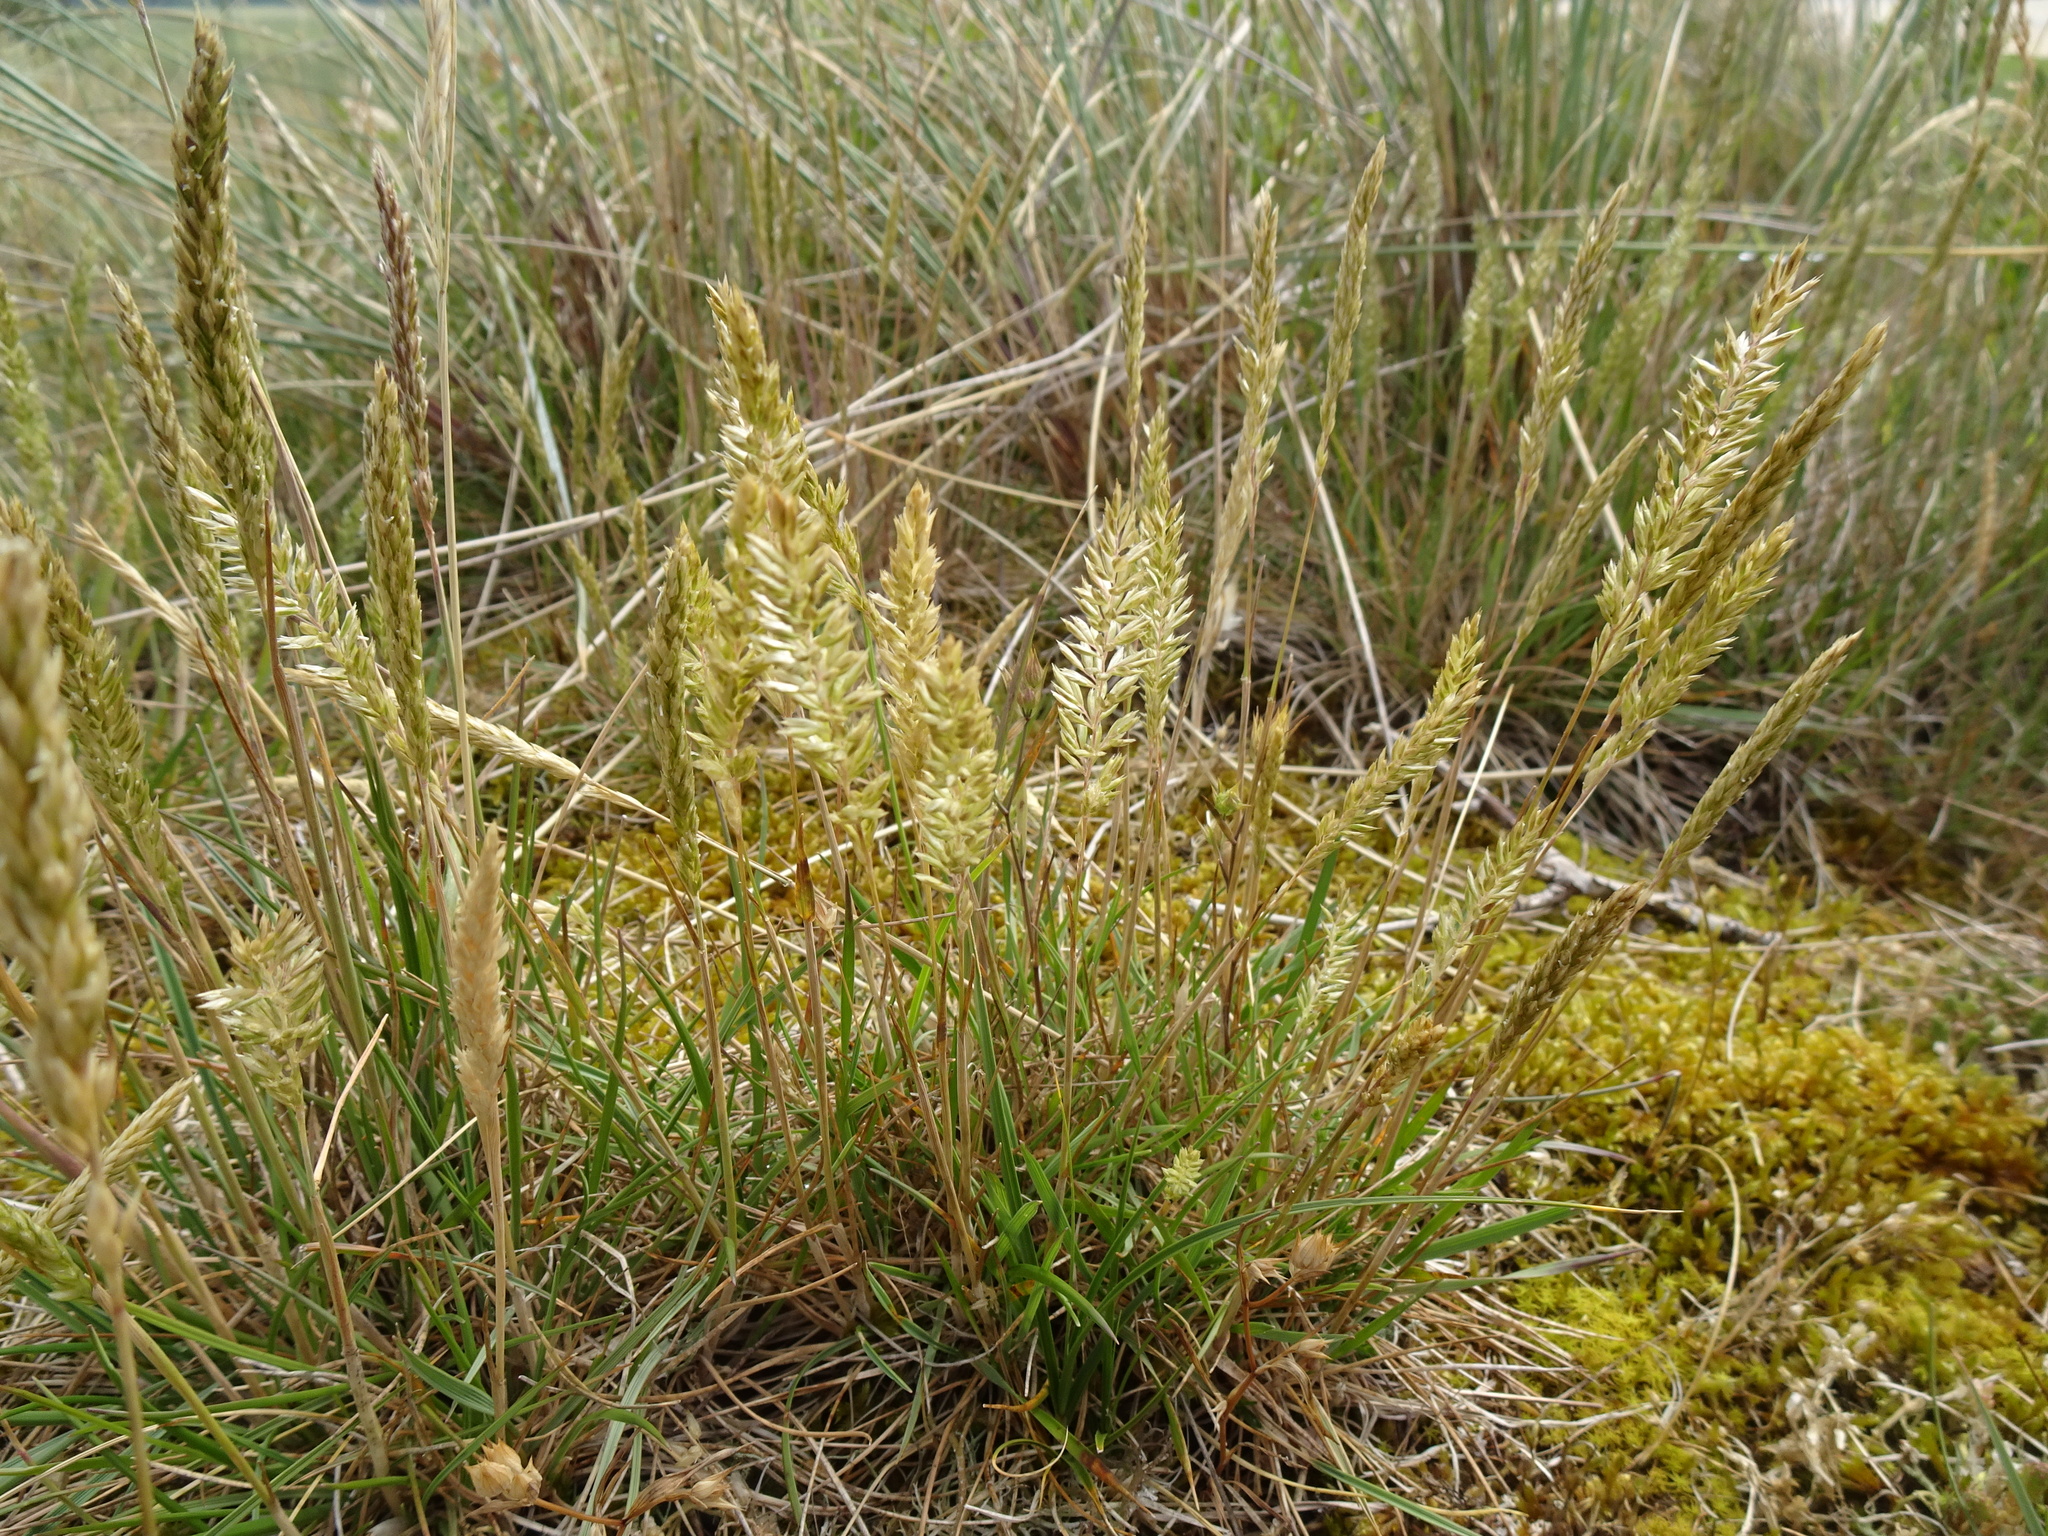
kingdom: Plantae
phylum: Tracheophyta
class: Liliopsida
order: Poales
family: Poaceae
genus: Koeleria
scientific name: Koeleria macrantha
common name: Crested hair-grass
